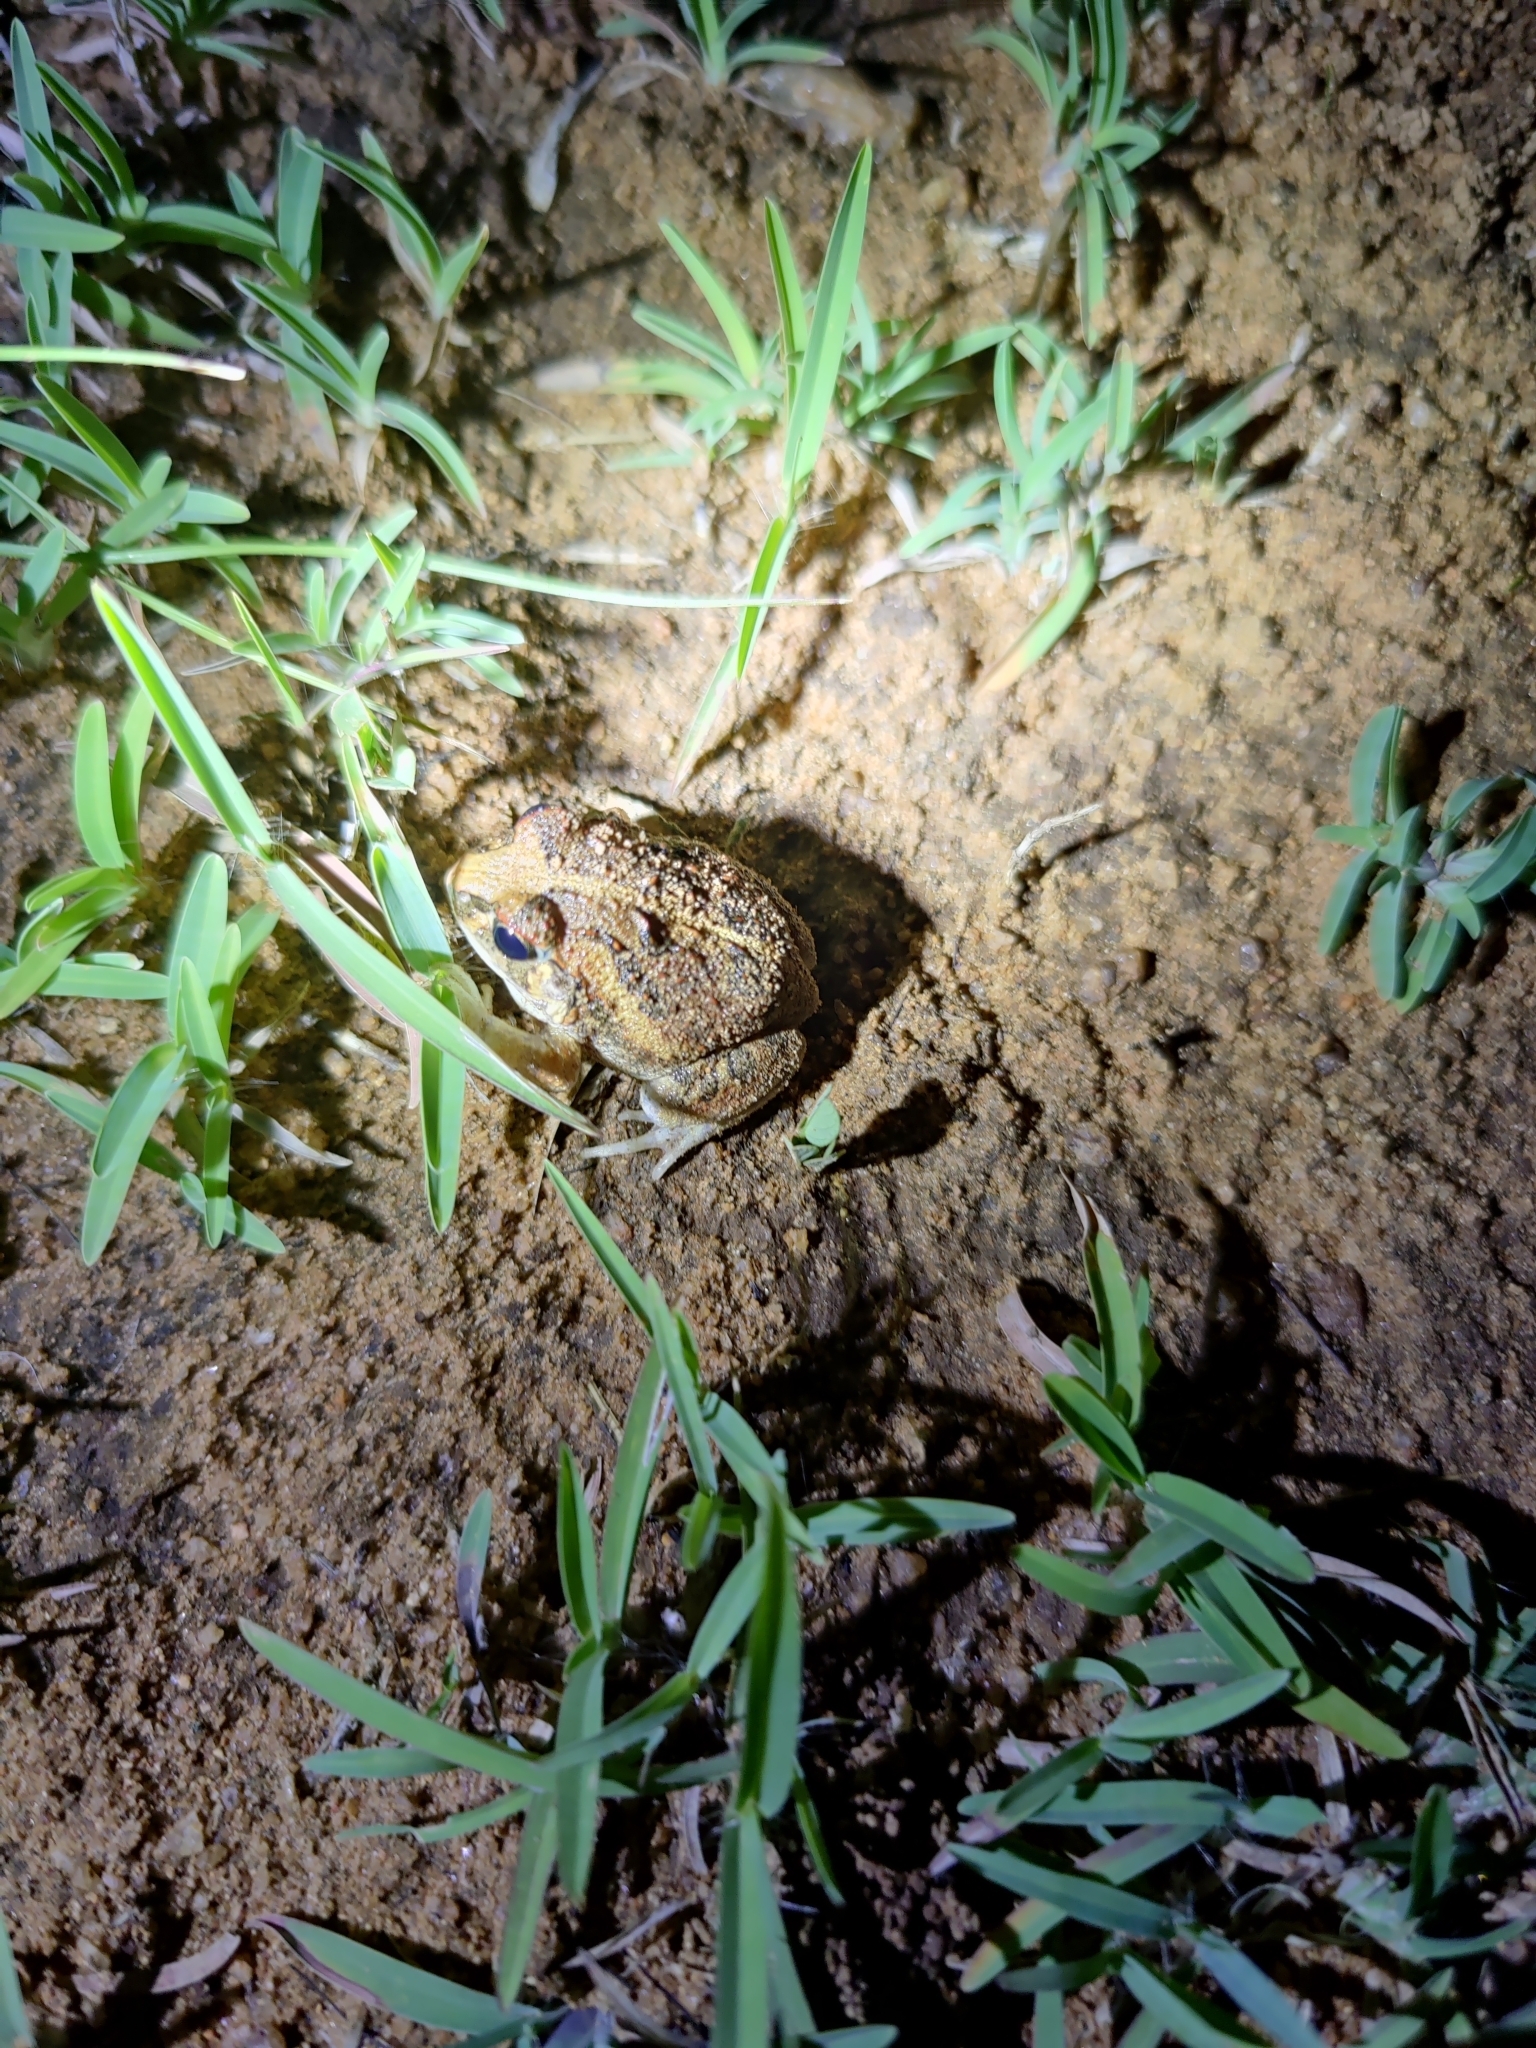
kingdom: Animalia
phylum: Chordata
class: Amphibia
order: Anura
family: Dicroglossidae
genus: Sphaerotheca
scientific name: Sphaerotheca bengaluru
